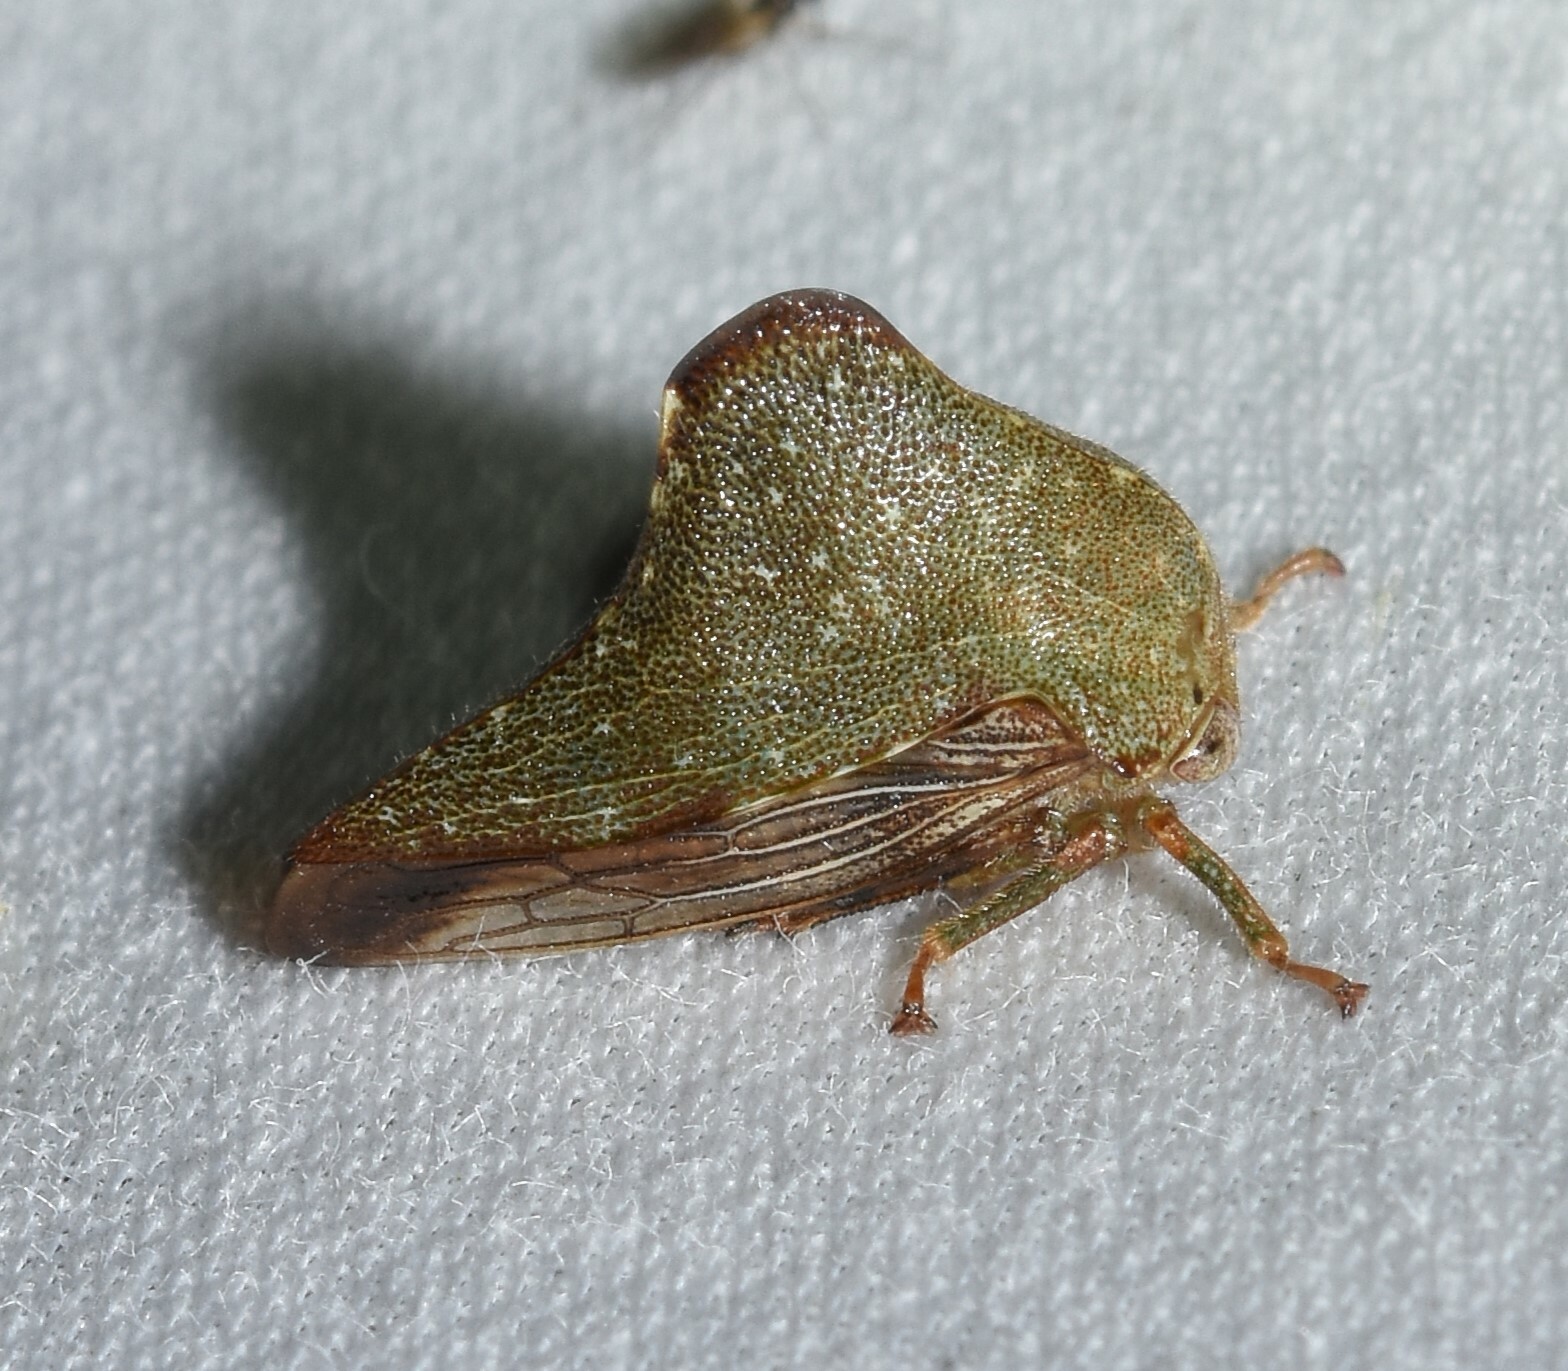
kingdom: Animalia
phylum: Arthropoda
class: Insecta
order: Hemiptera
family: Membracidae
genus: Telamona
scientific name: Telamona monticola
